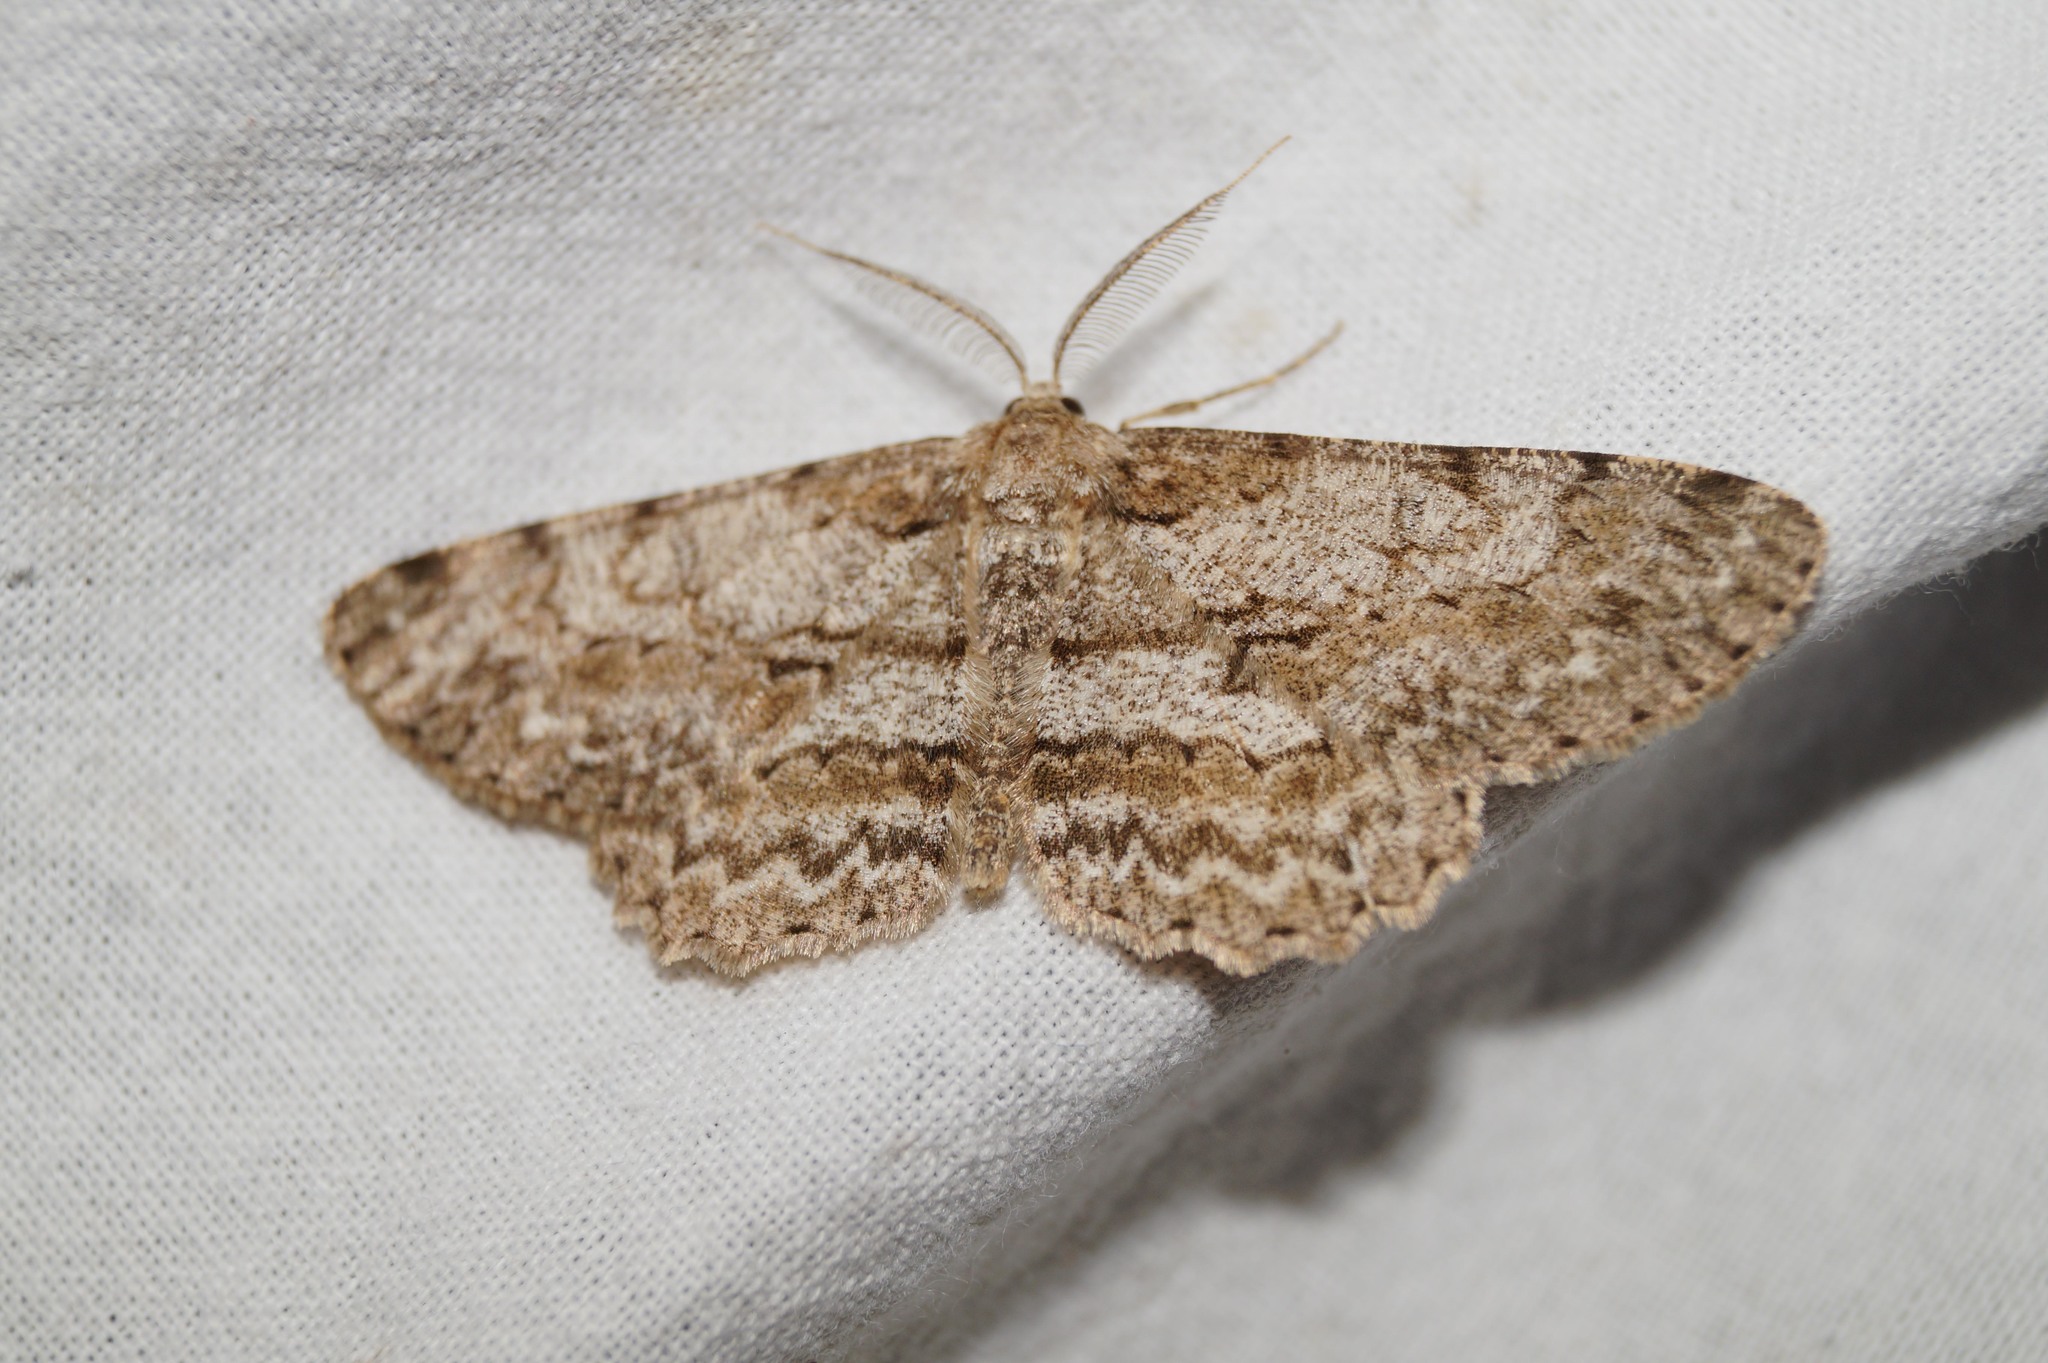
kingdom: Animalia
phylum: Arthropoda
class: Insecta
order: Lepidoptera
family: Geometridae
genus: Hypomecis
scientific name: Hypomecis punctinalis
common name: Pale oak beauty
